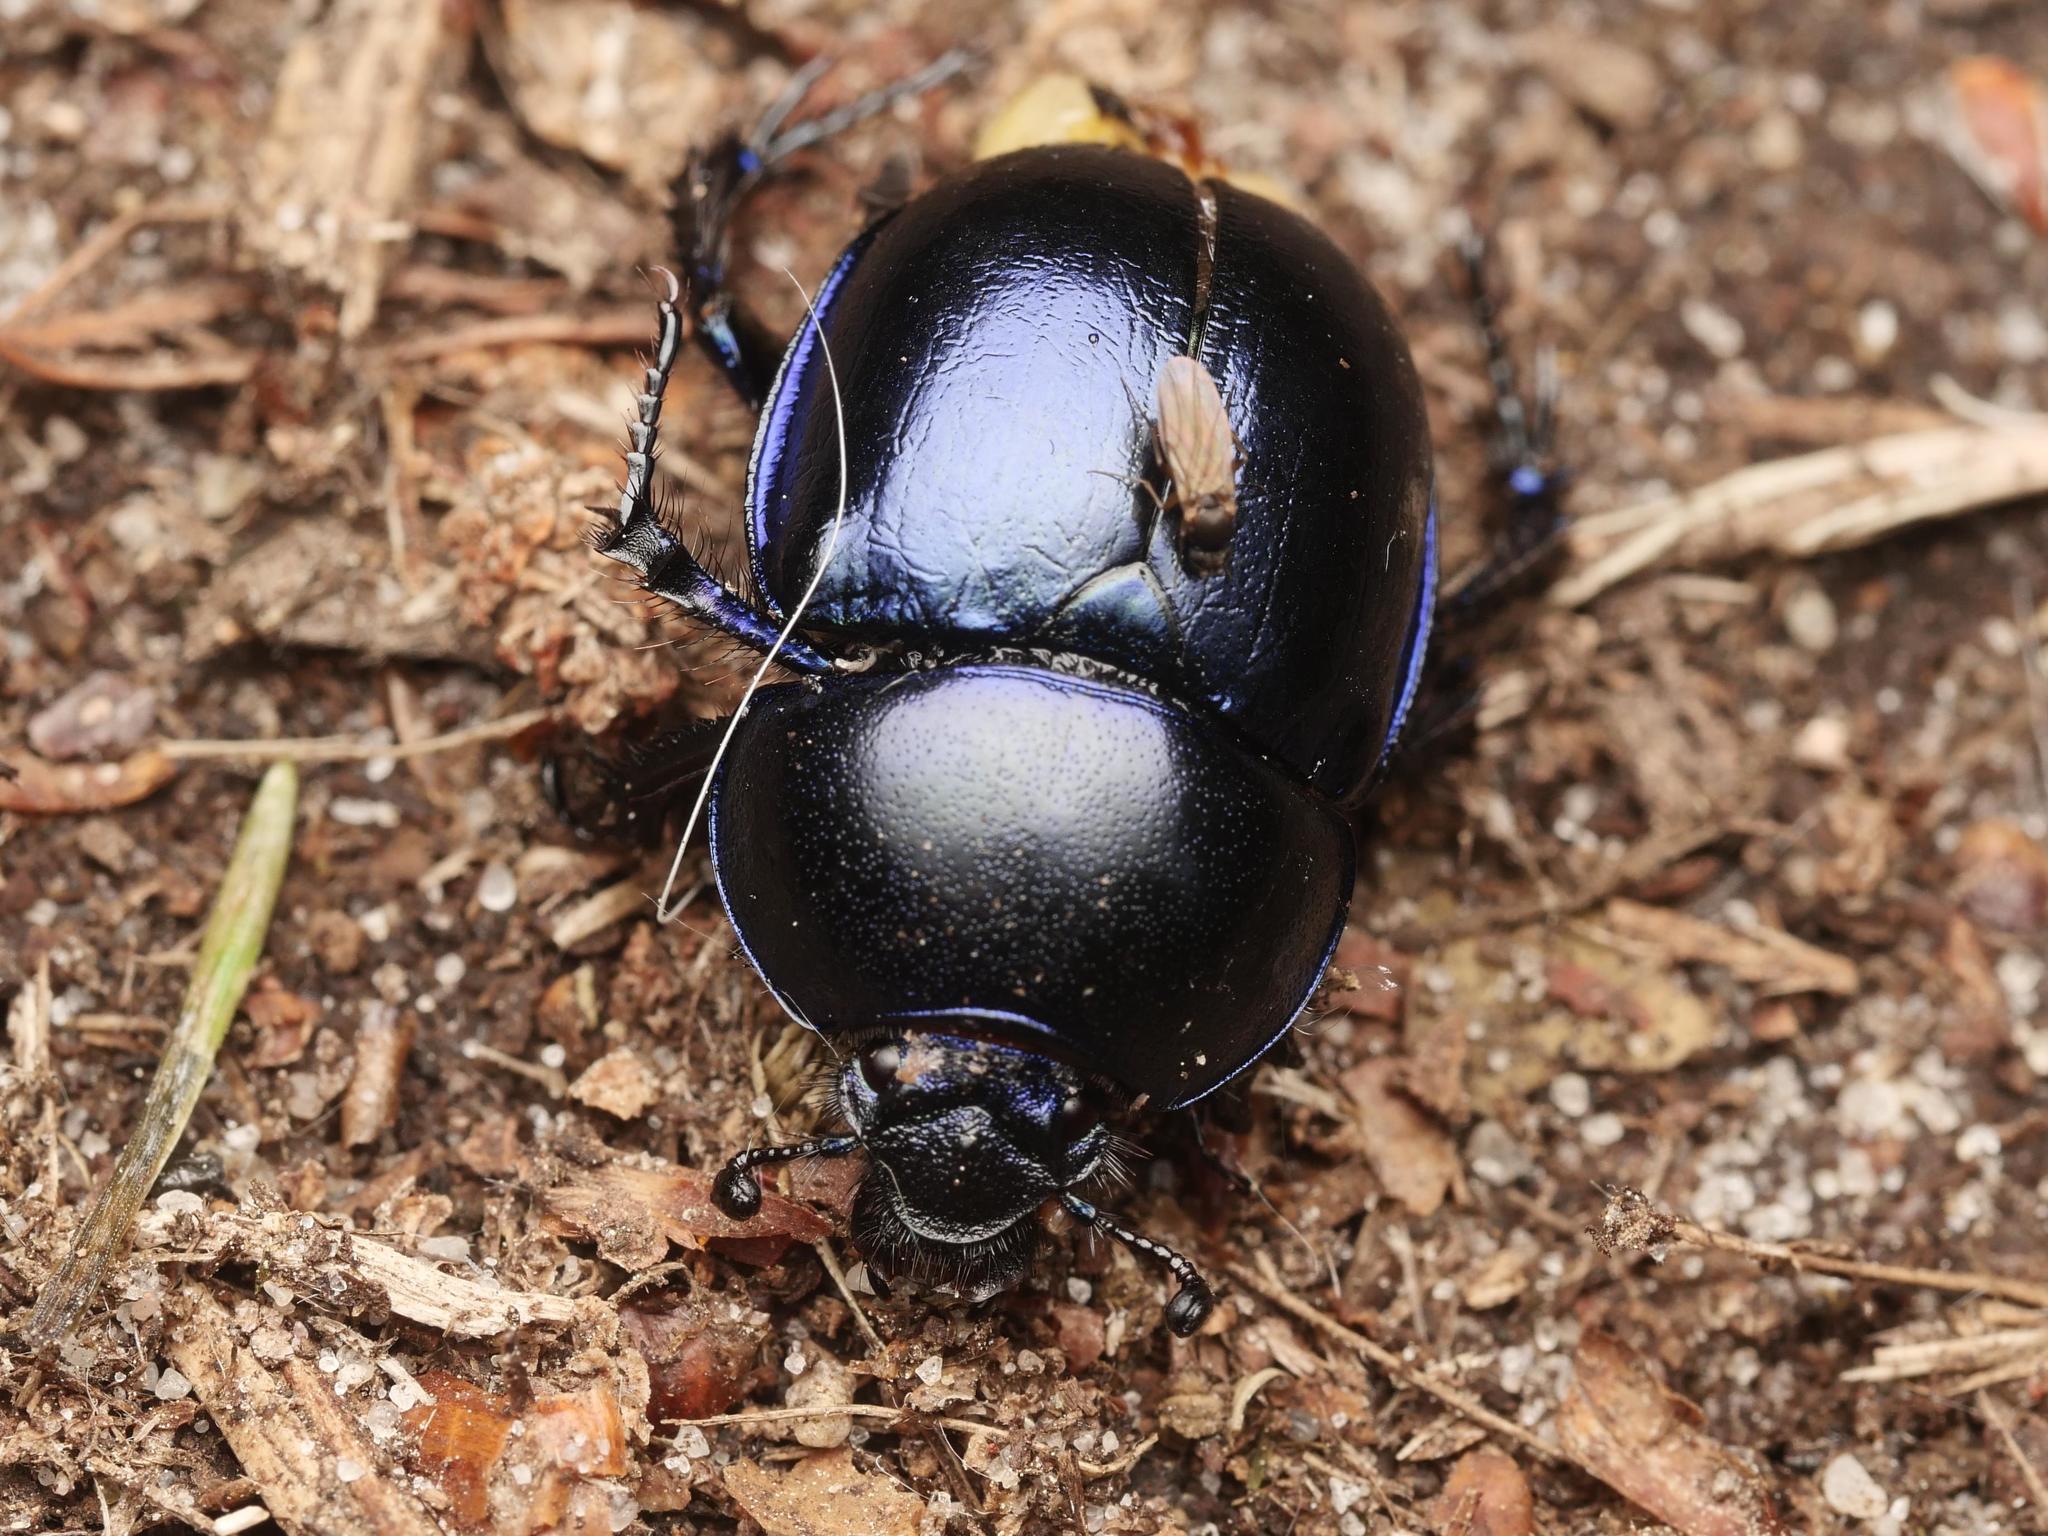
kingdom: Animalia
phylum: Arthropoda
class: Insecta
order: Coleoptera
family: Geotrupidae
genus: Trypocopris
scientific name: Trypocopris vernalis
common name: Spring dumbledor
